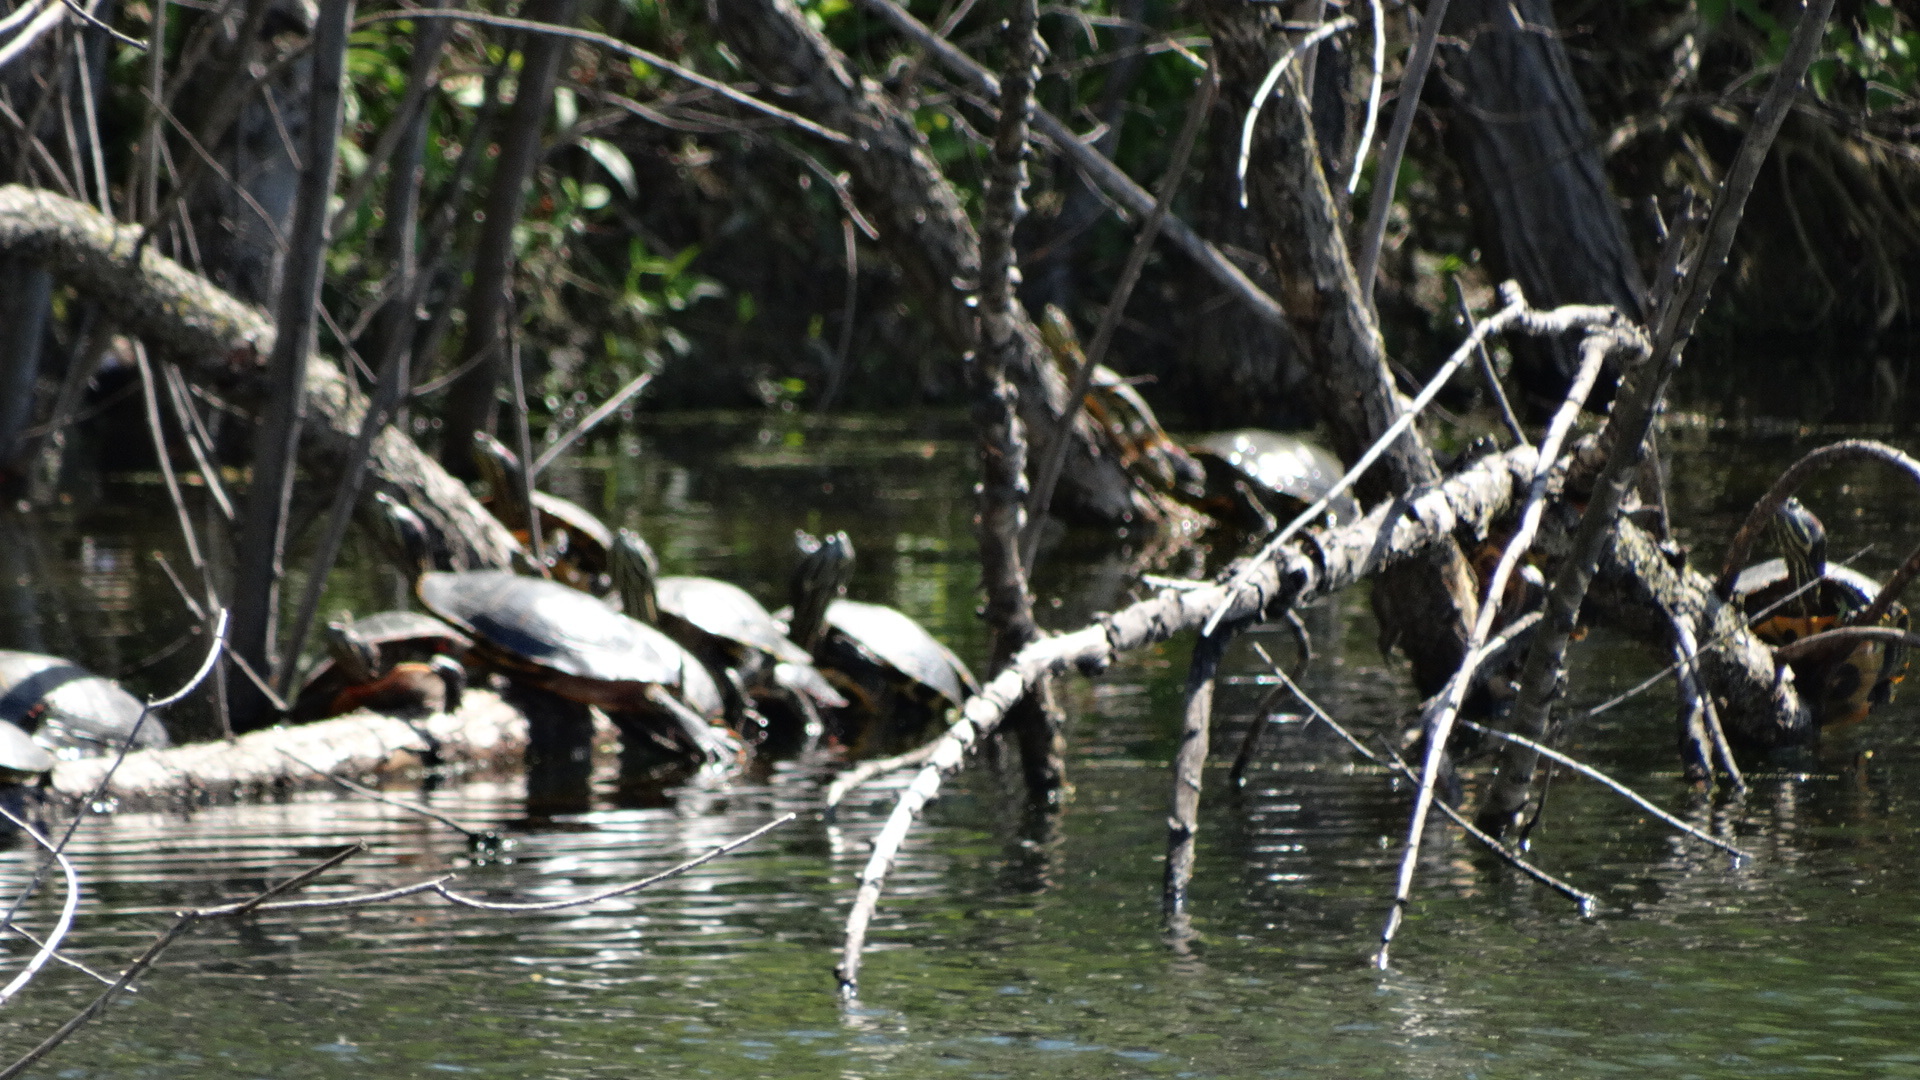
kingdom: Animalia
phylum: Chordata
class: Testudines
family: Emydidae
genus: Trachemys
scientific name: Trachemys scripta
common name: Slider
